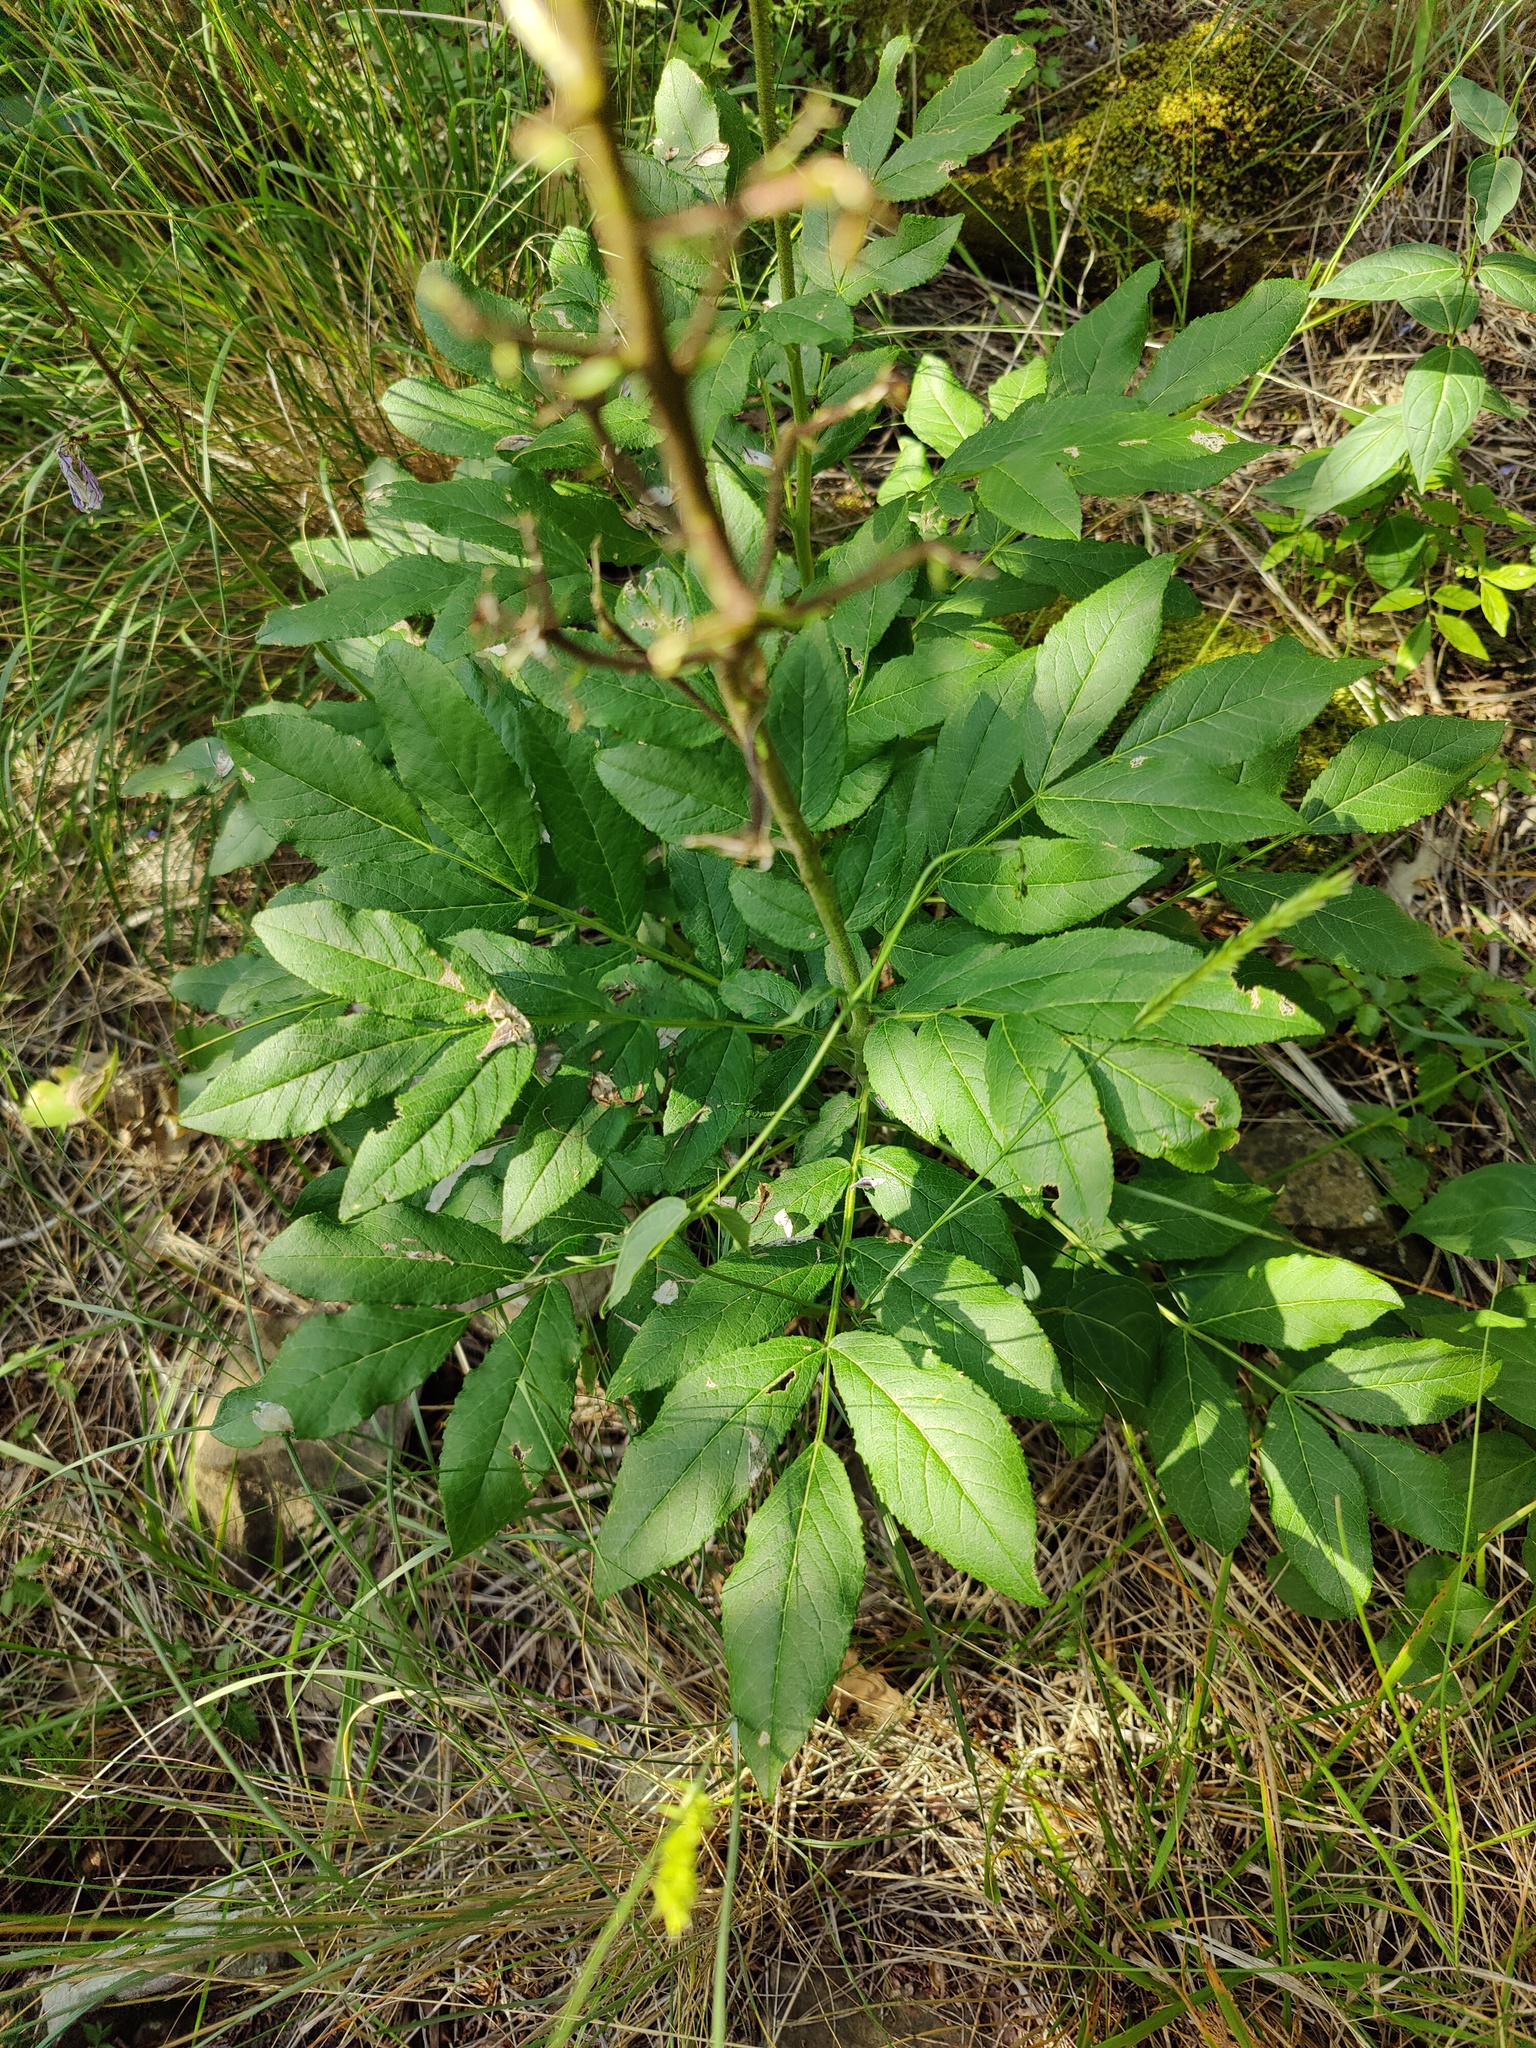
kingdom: Plantae
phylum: Tracheophyta
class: Magnoliopsida
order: Sapindales
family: Rutaceae
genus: Dictamnus
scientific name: Dictamnus albus
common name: Gasplant
